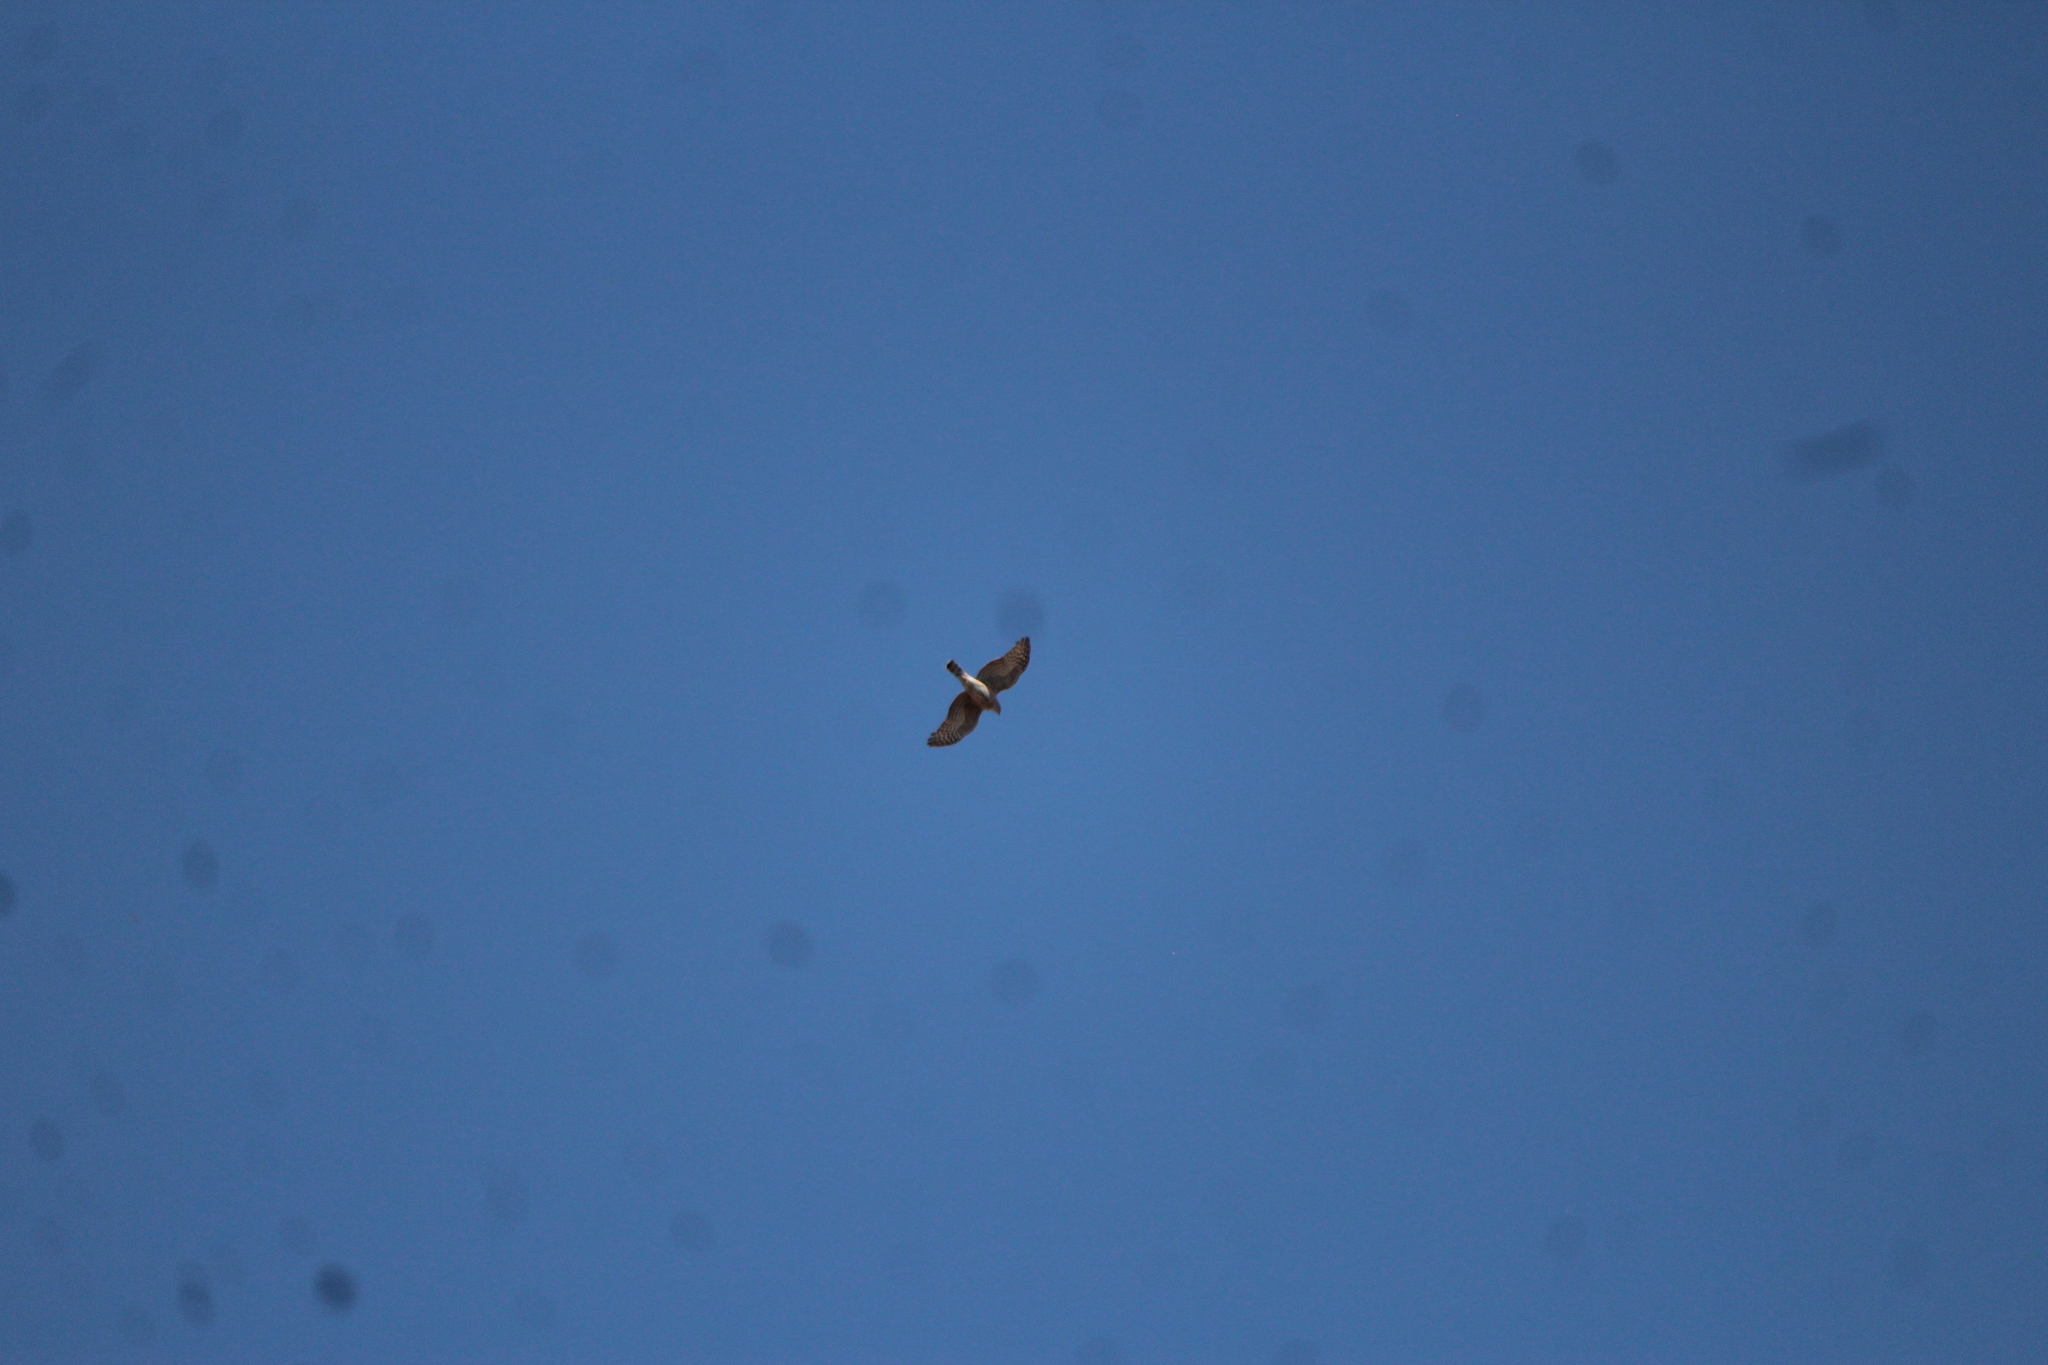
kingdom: Animalia
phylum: Chordata
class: Aves
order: Accipitriformes
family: Accipitridae
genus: Accipiter
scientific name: Accipiter cooperii
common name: Cooper's hawk
